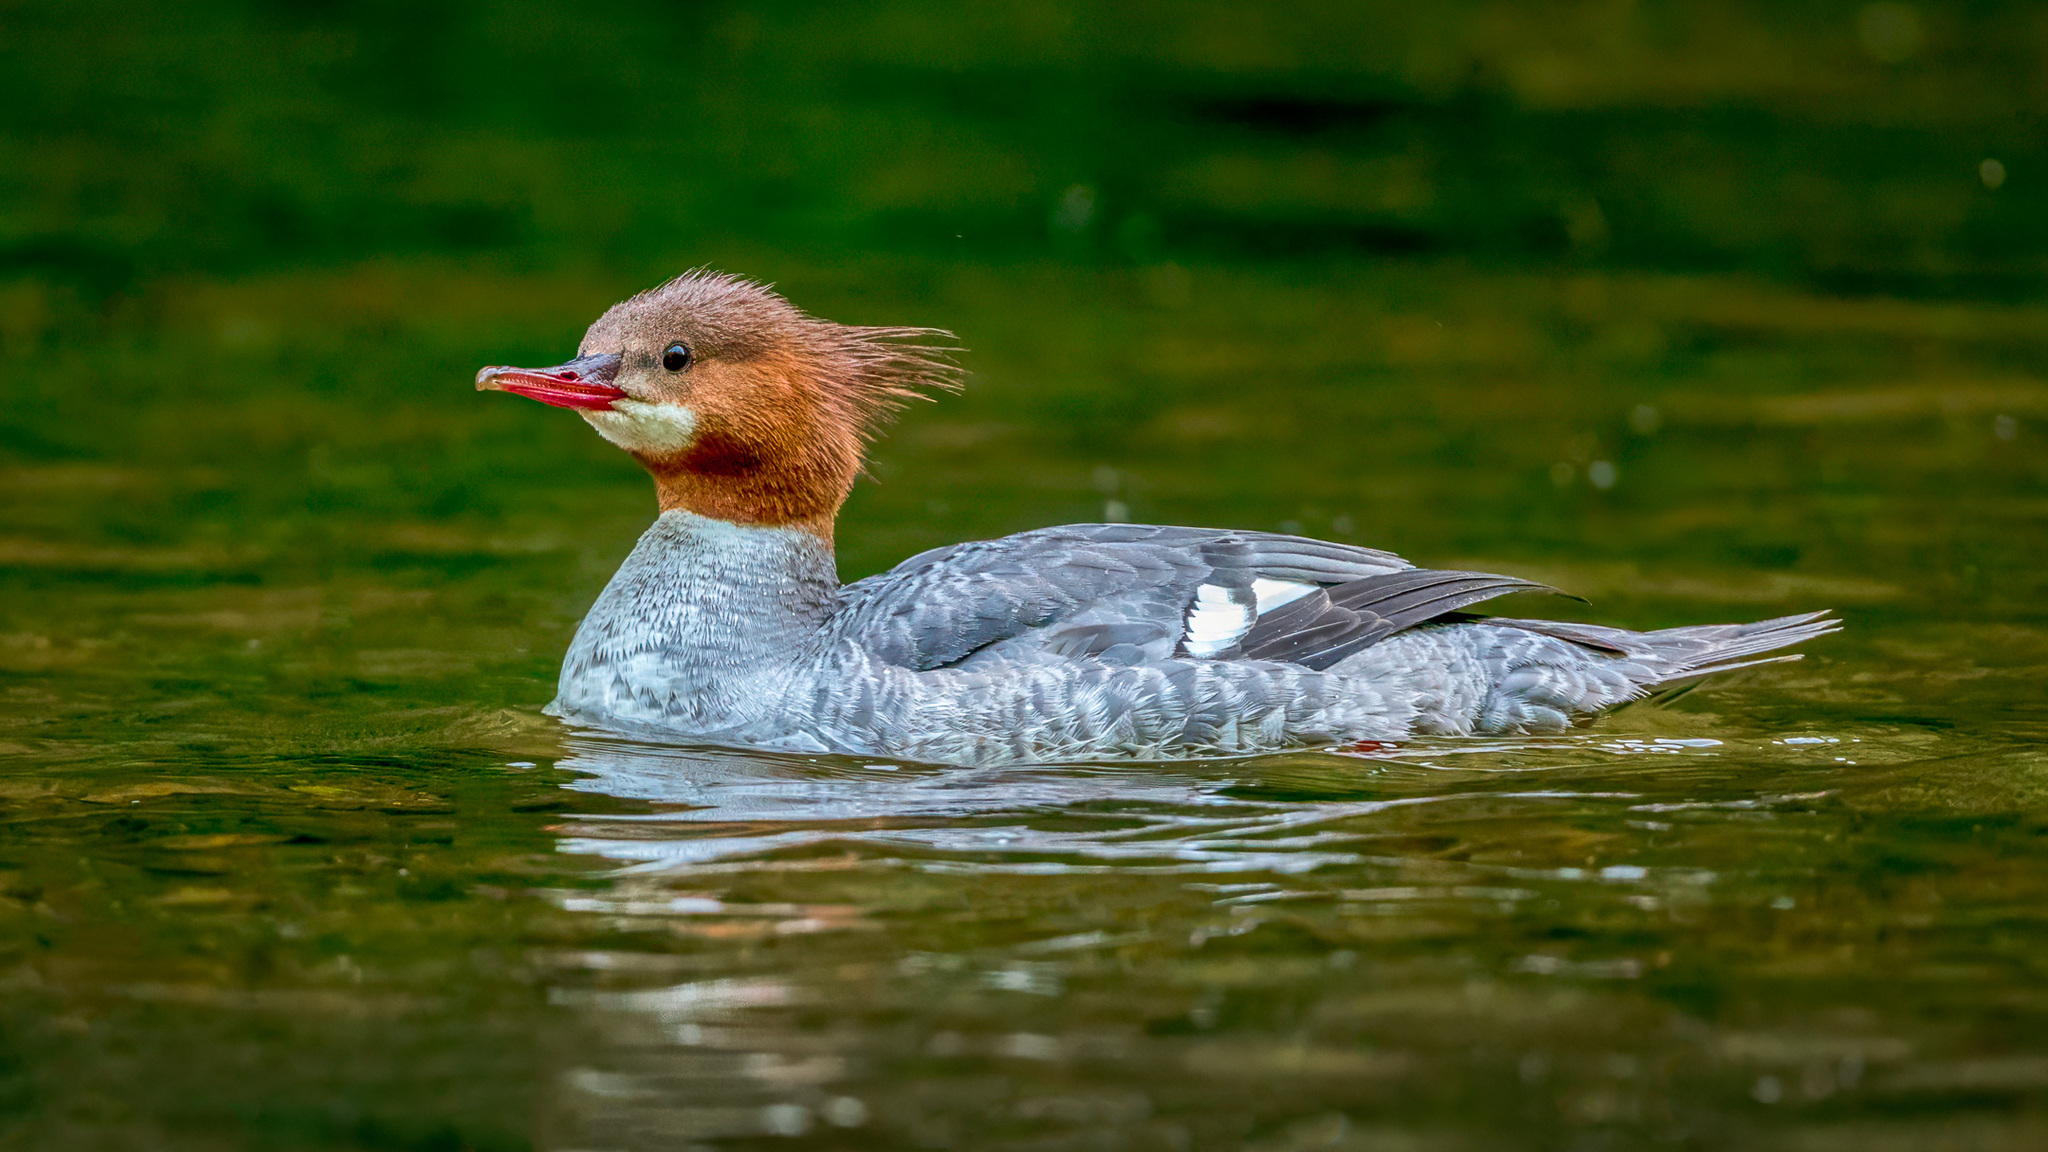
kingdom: Animalia
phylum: Chordata
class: Aves
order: Anseriformes
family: Anatidae
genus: Mergus
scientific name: Mergus merganser
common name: Common merganser
